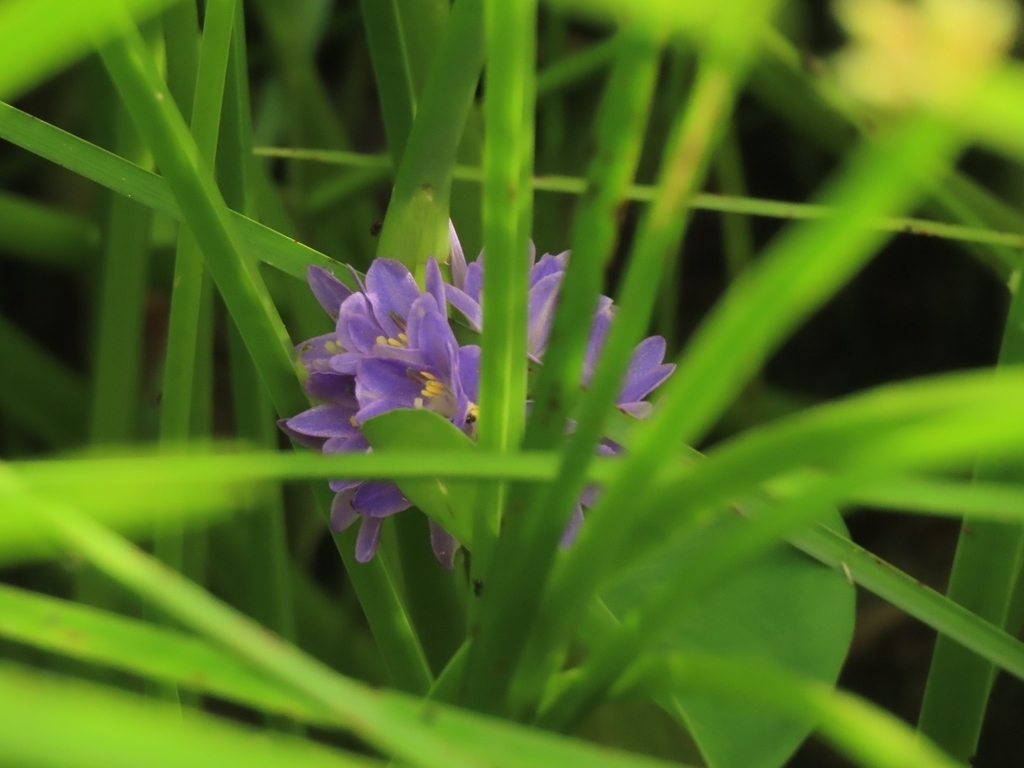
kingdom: Plantae
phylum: Tracheophyta
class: Liliopsida
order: Commelinales
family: Pontederiaceae
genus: Pontederia
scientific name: Pontederia vaginalis
